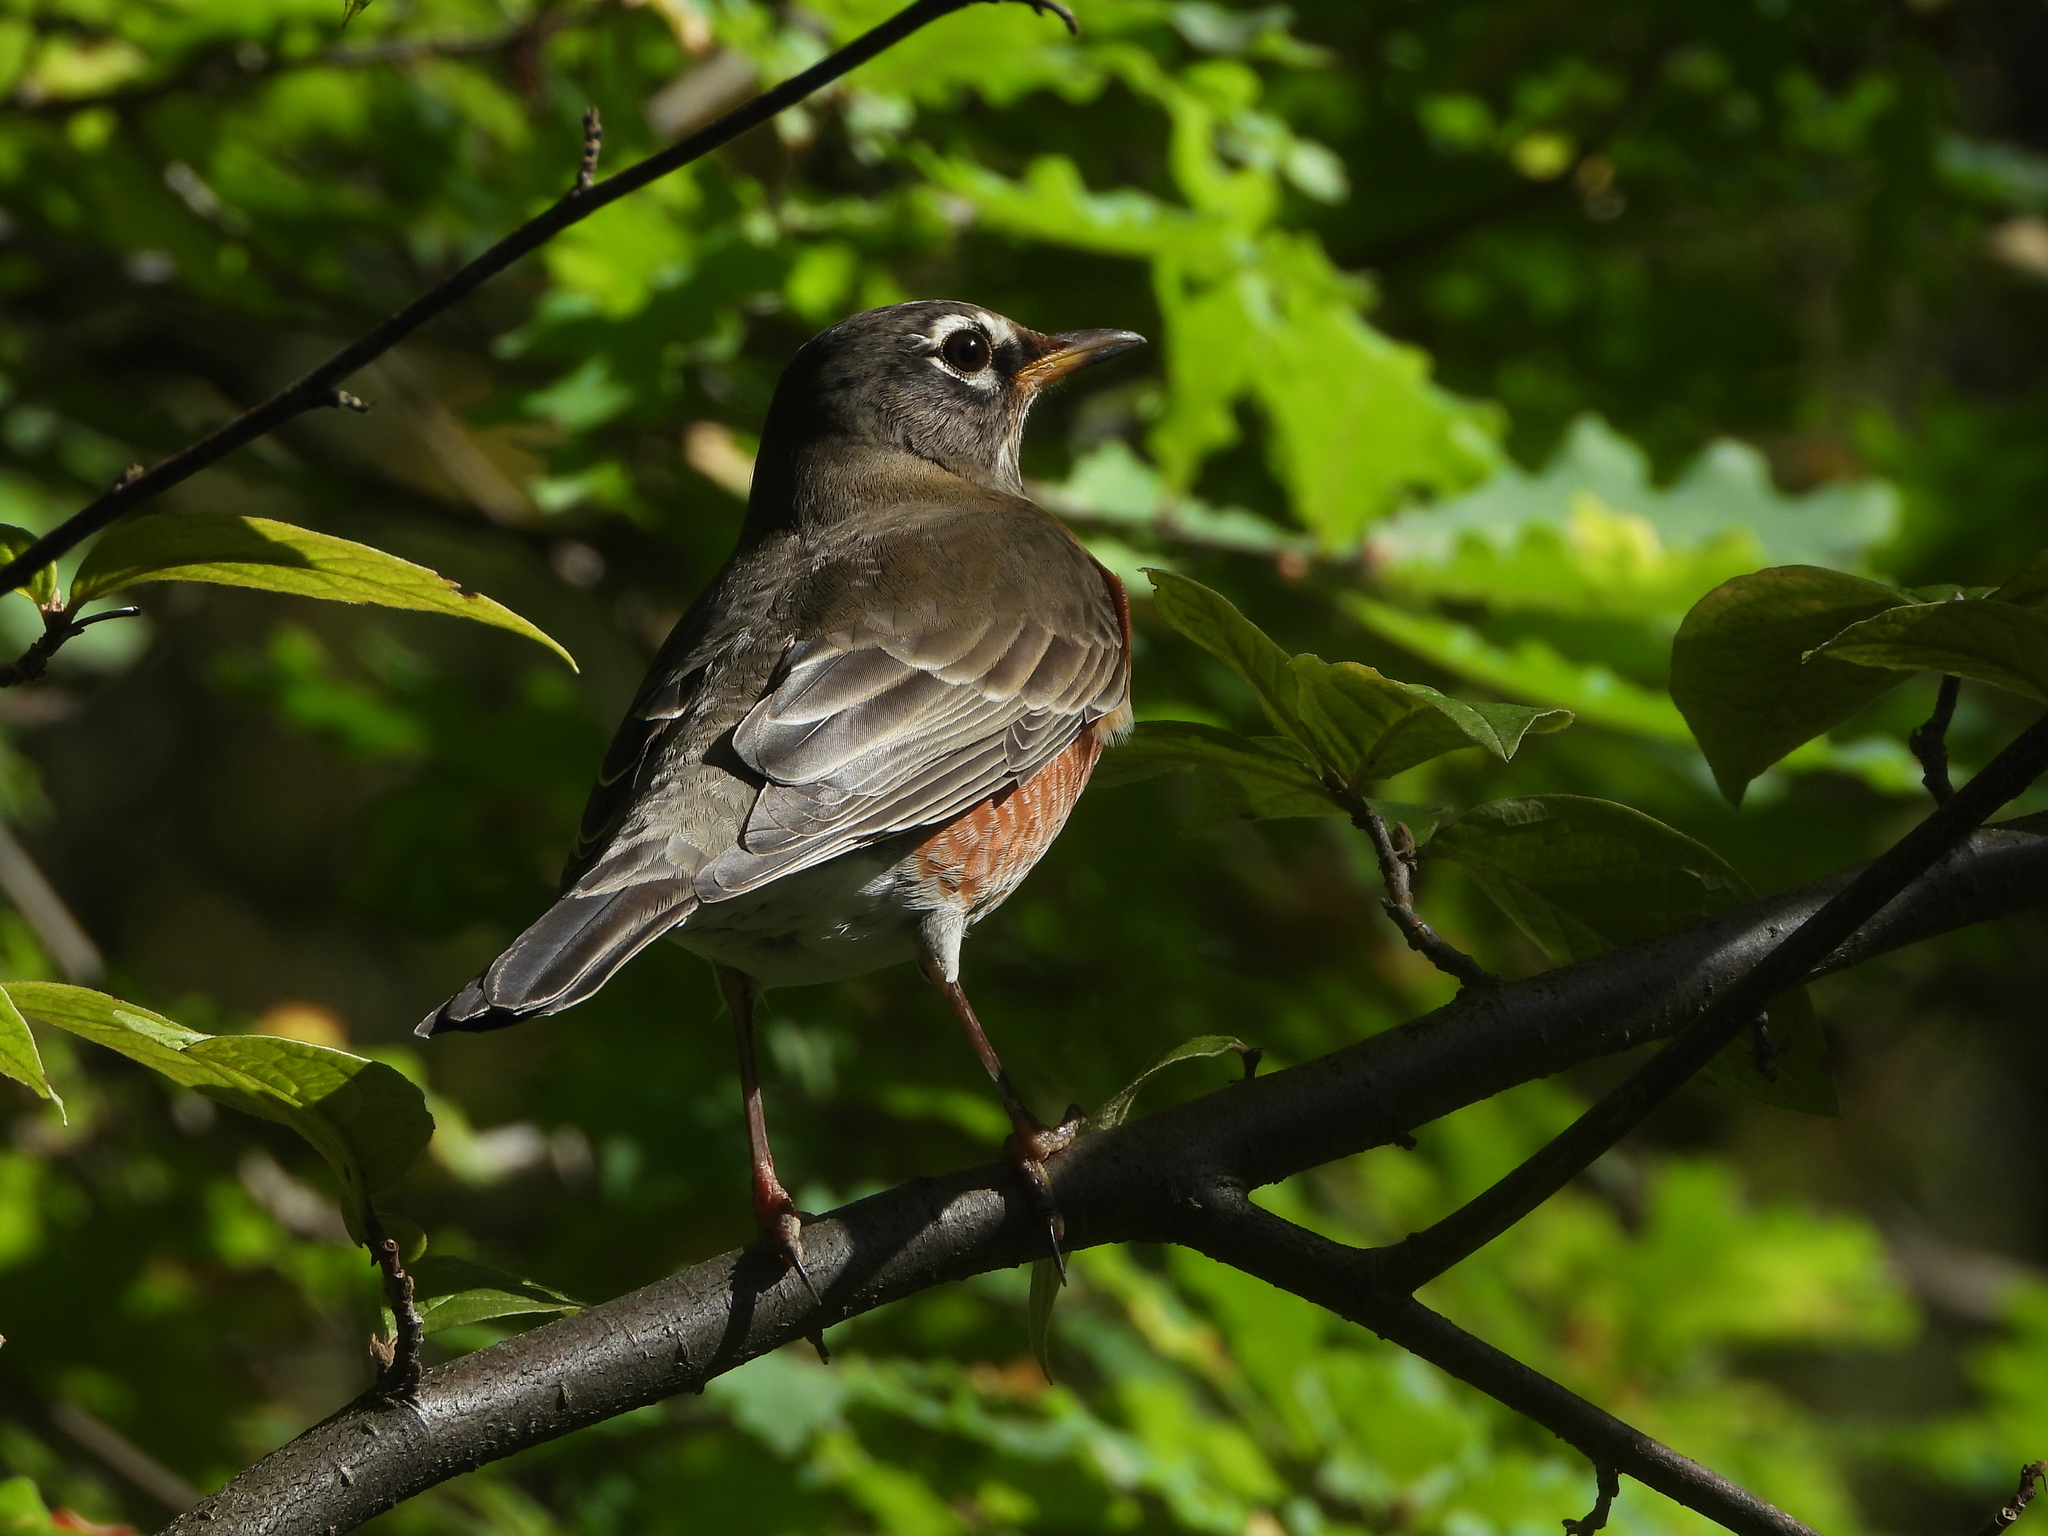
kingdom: Animalia
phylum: Chordata
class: Aves
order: Passeriformes
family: Turdidae
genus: Turdus
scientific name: Turdus migratorius
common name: American robin
